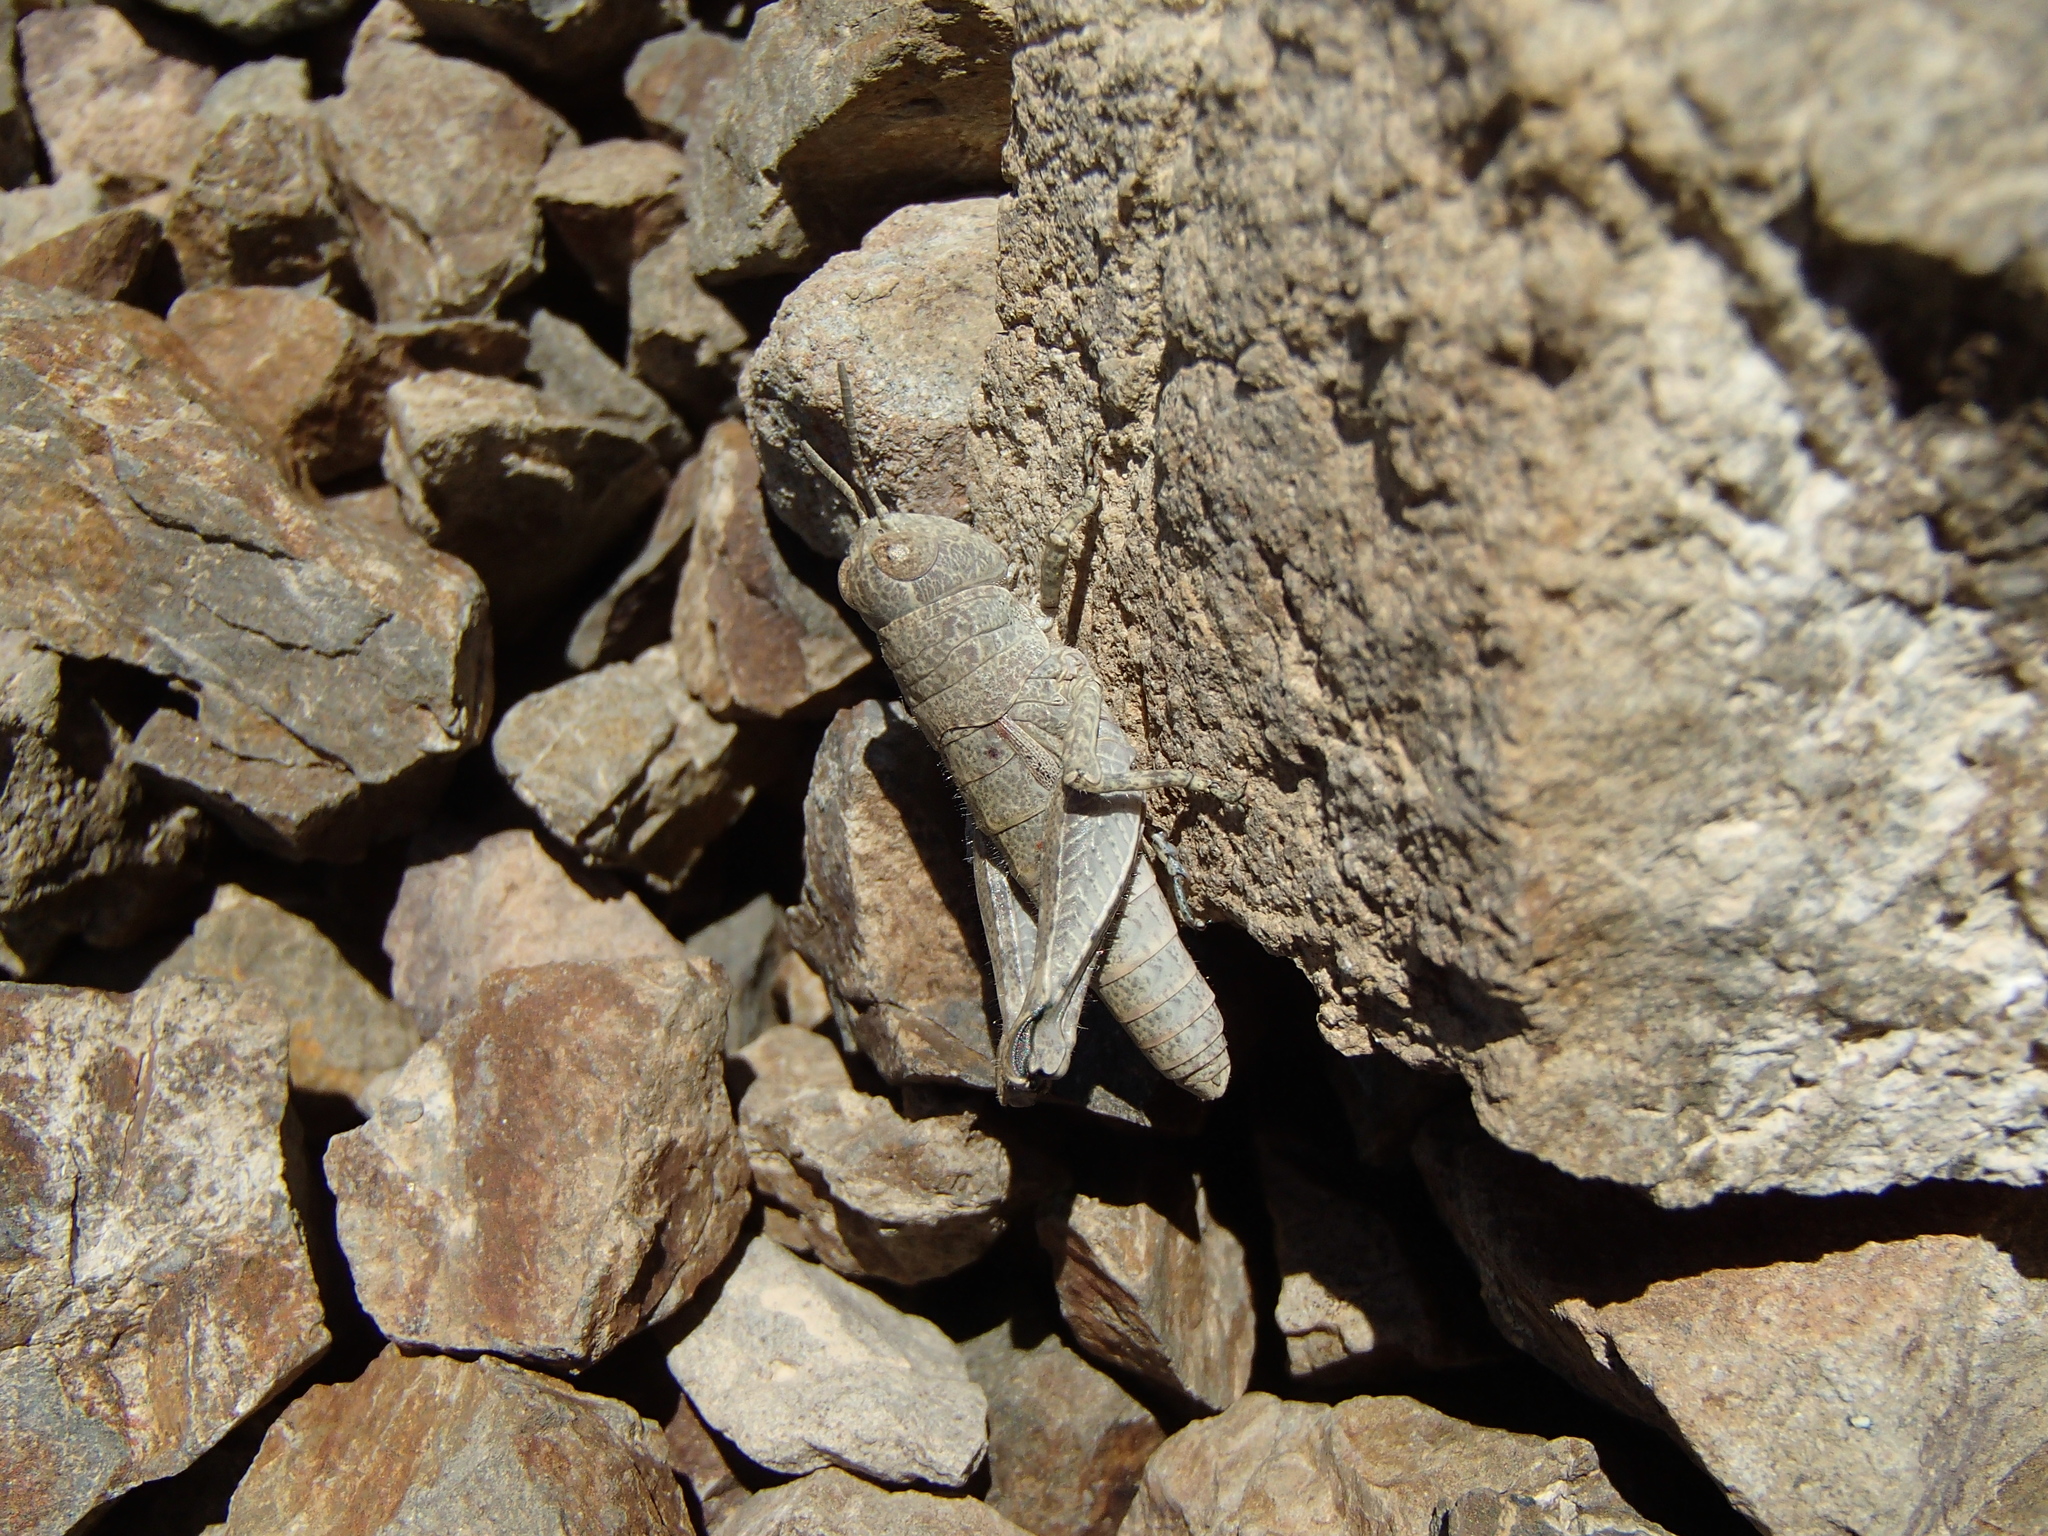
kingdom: Animalia
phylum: Arthropoda
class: Insecta
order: Orthoptera
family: Acrididae
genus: Sigaus
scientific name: Sigaus
